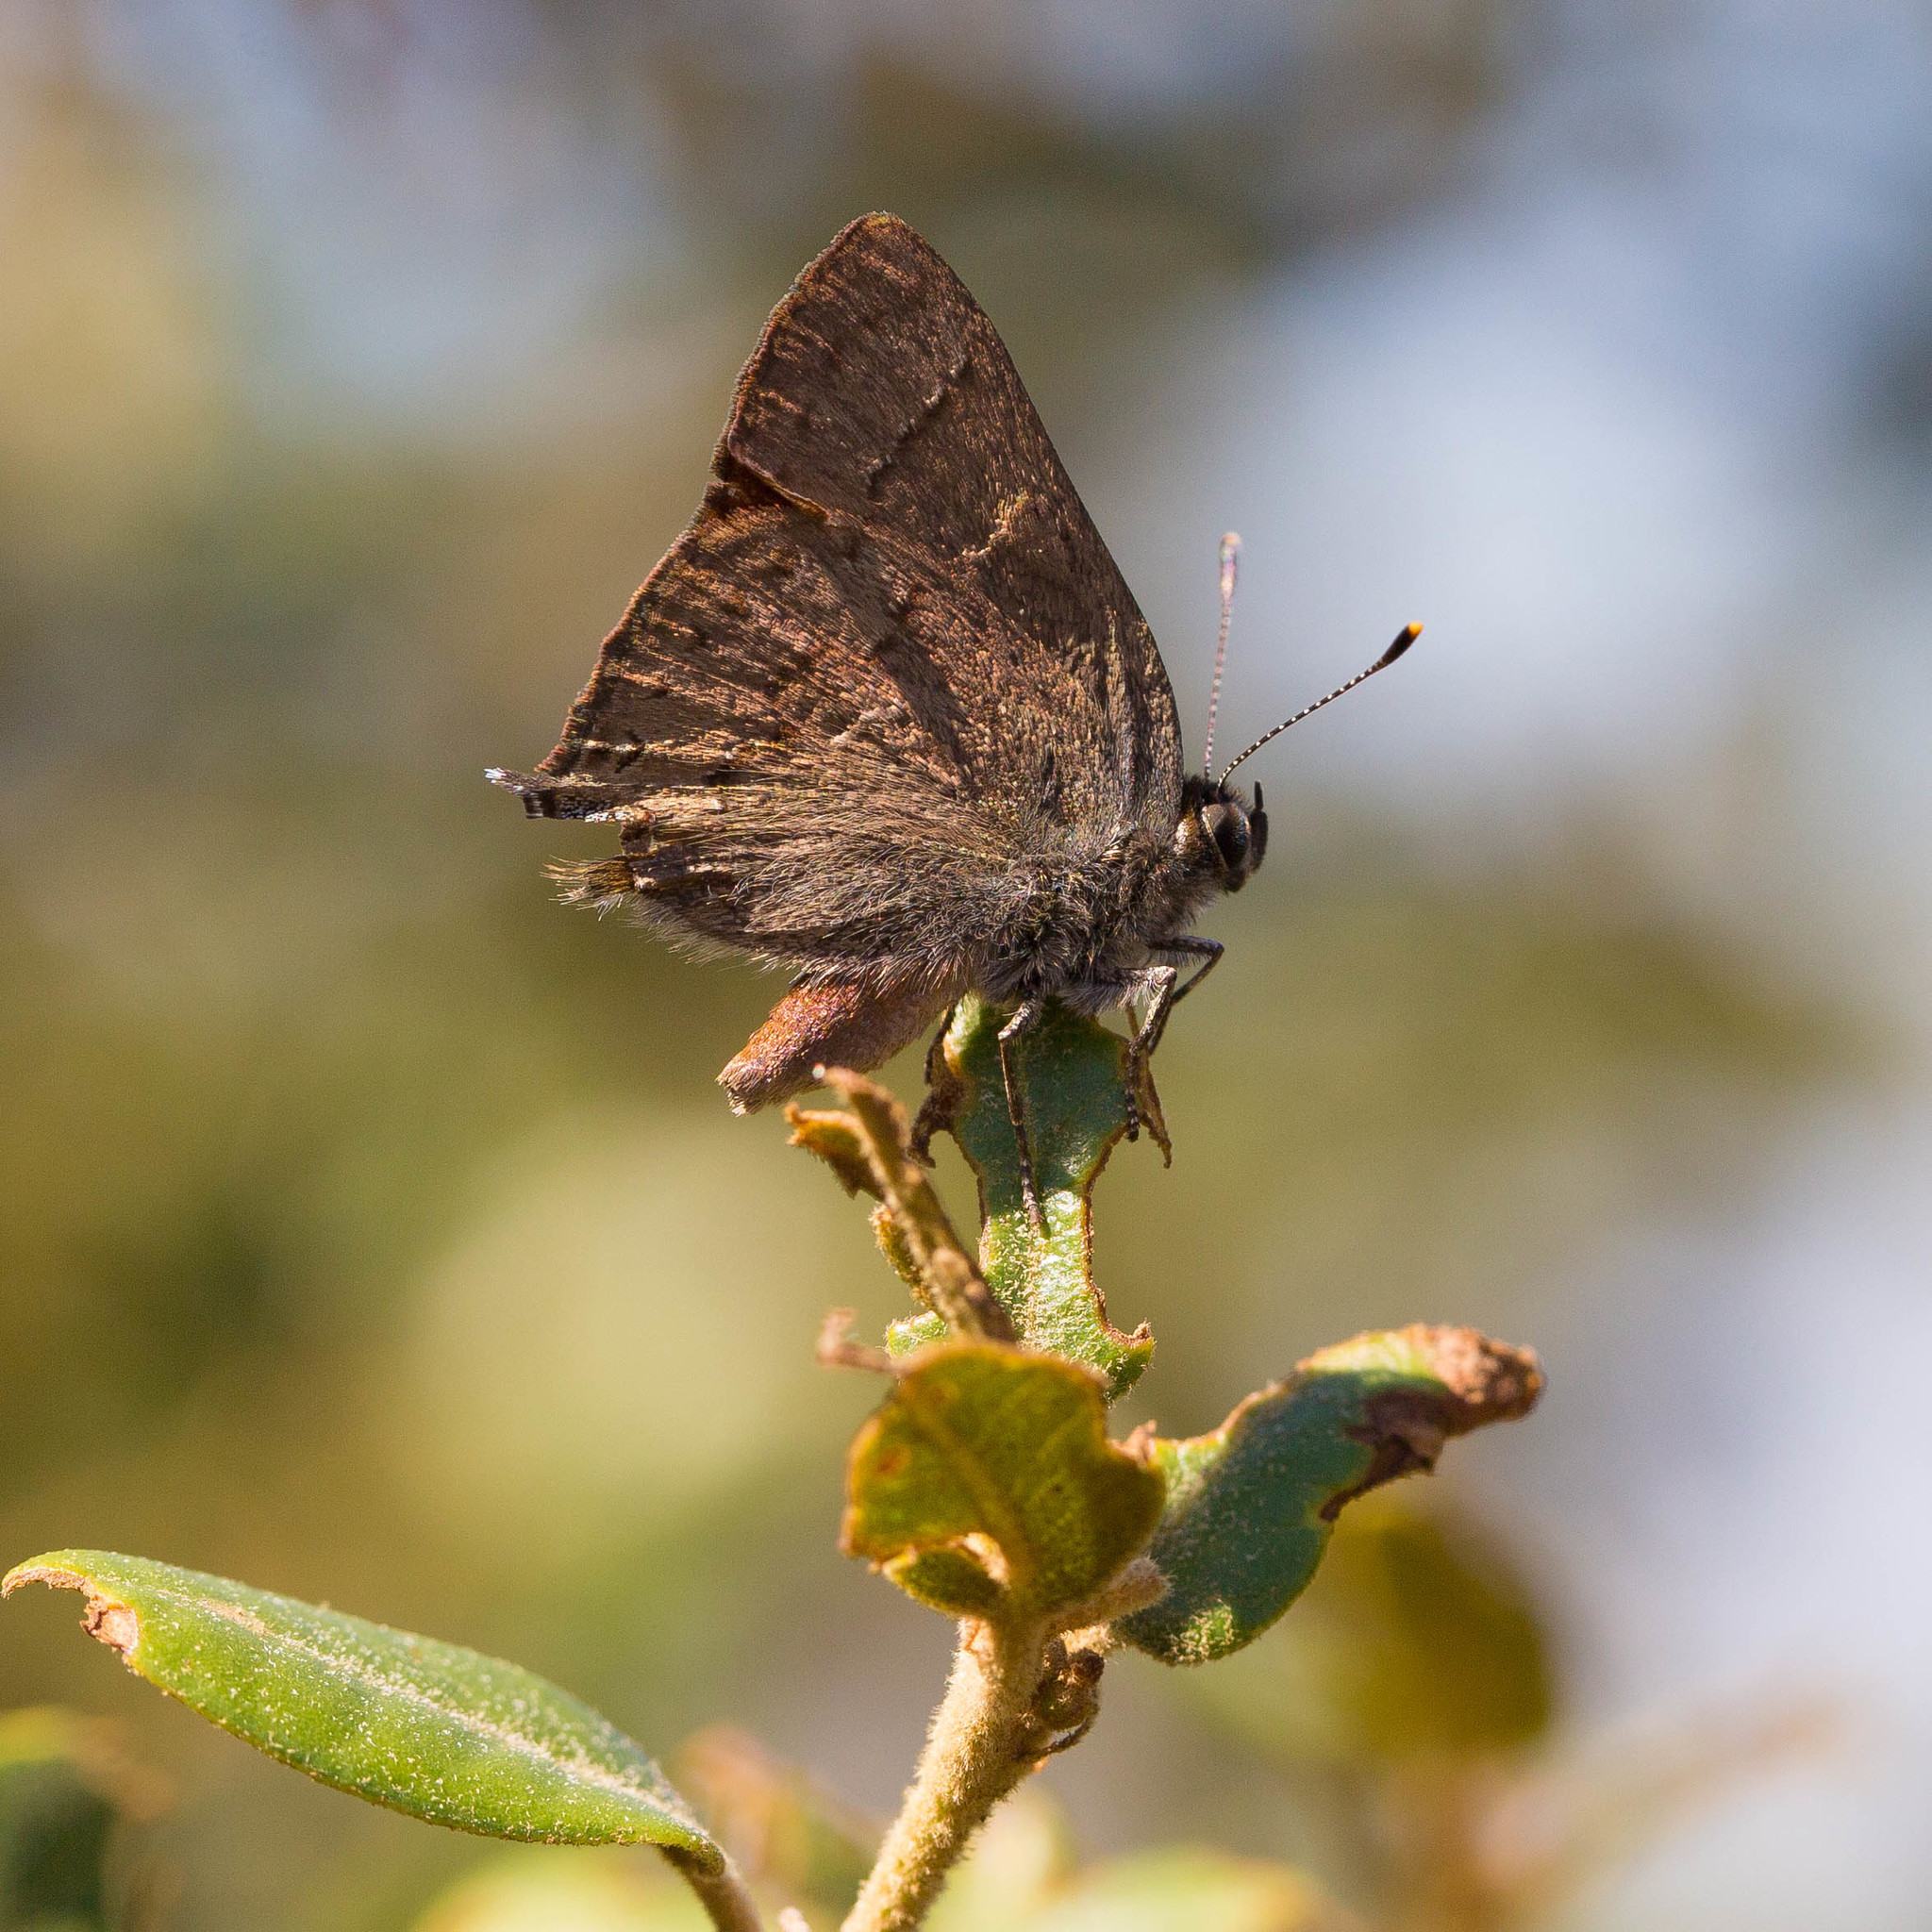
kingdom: Animalia
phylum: Arthropoda
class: Insecta
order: Lepidoptera
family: Lycaenidae
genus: Strymon
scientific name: Strymon saepium
